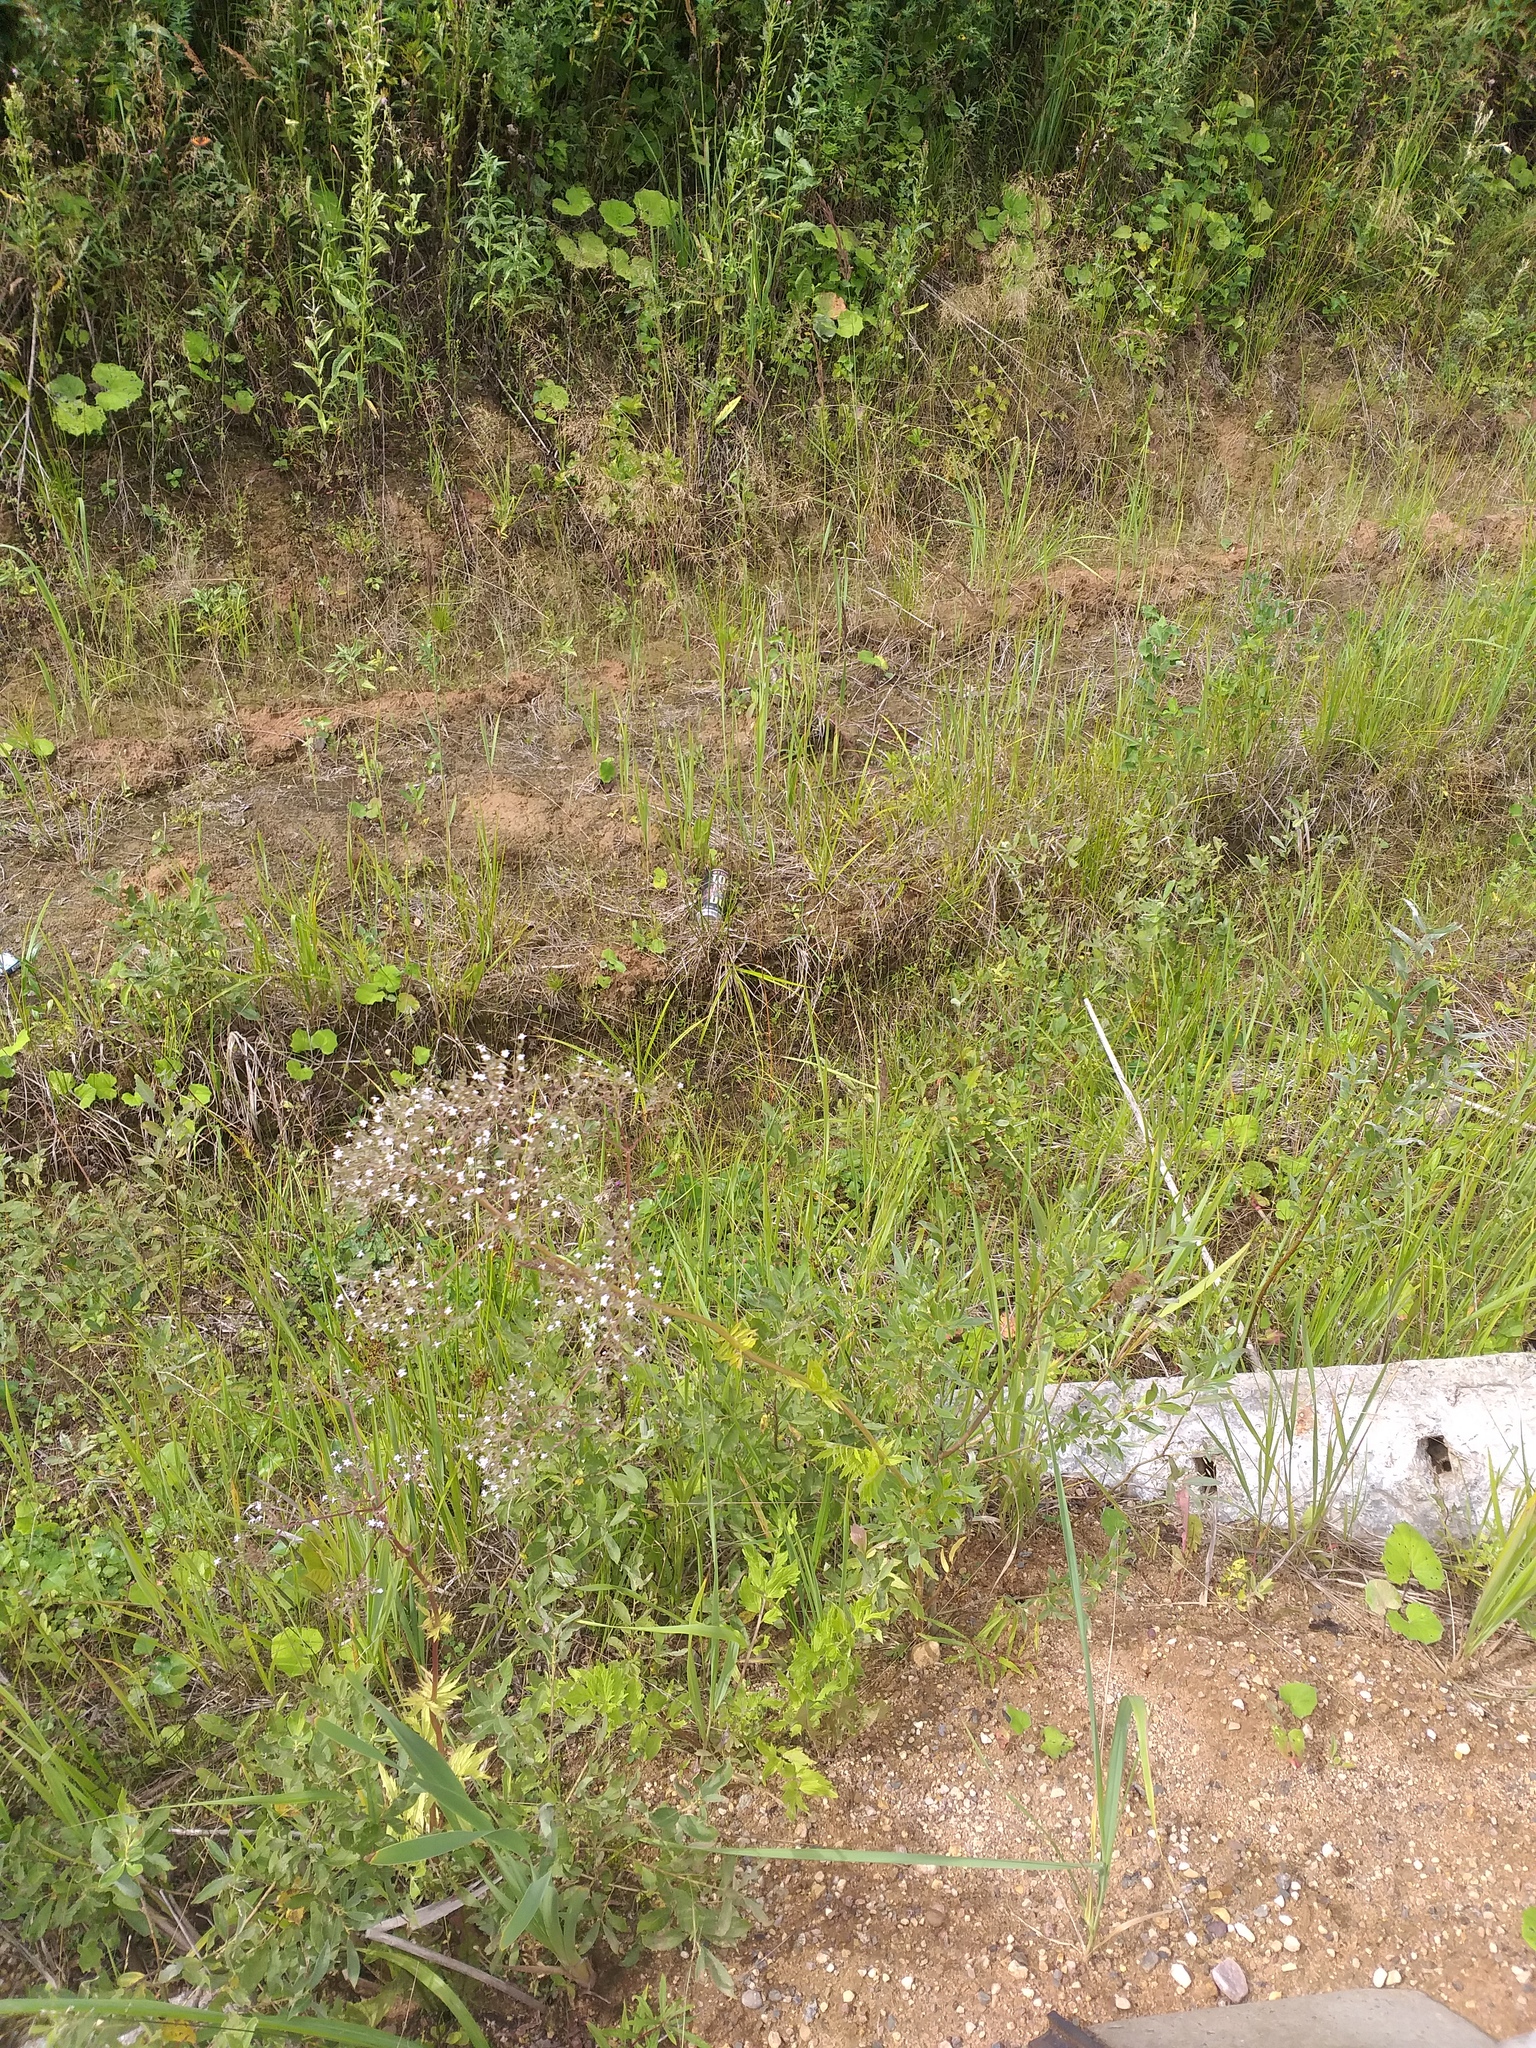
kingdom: Plantae
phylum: Tracheophyta
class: Magnoliopsida
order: Dipsacales
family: Caprifoliaceae
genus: Valeriana
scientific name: Valeriana officinalis
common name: Common valerian
